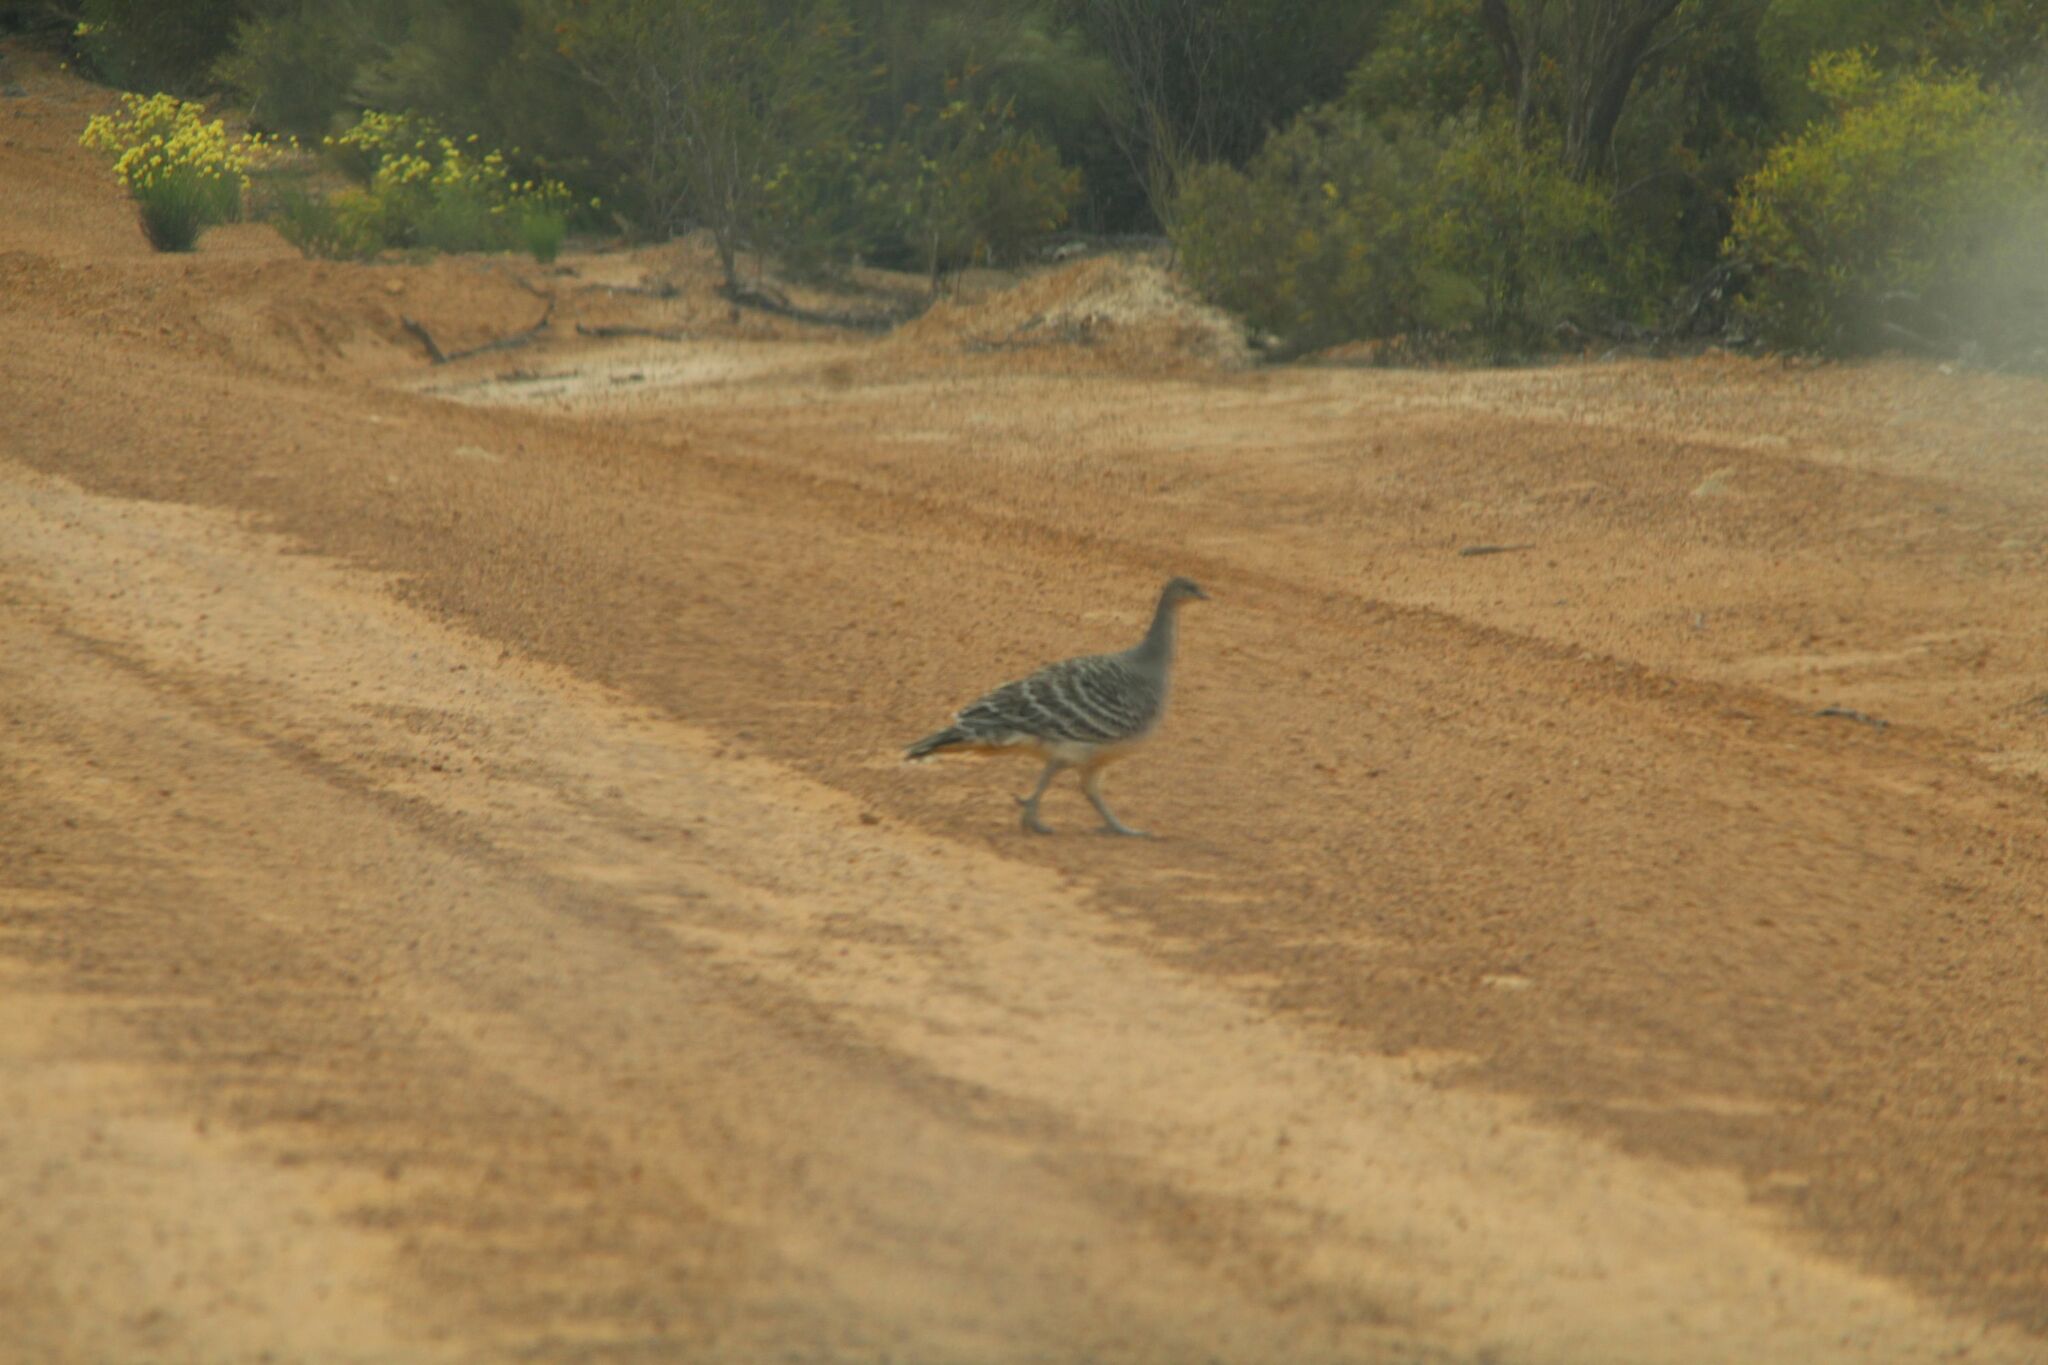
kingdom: Animalia
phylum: Chordata
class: Aves
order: Galliformes
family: Megapodiidae
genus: Leipoa
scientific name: Leipoa ocellata
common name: Malleefowl
